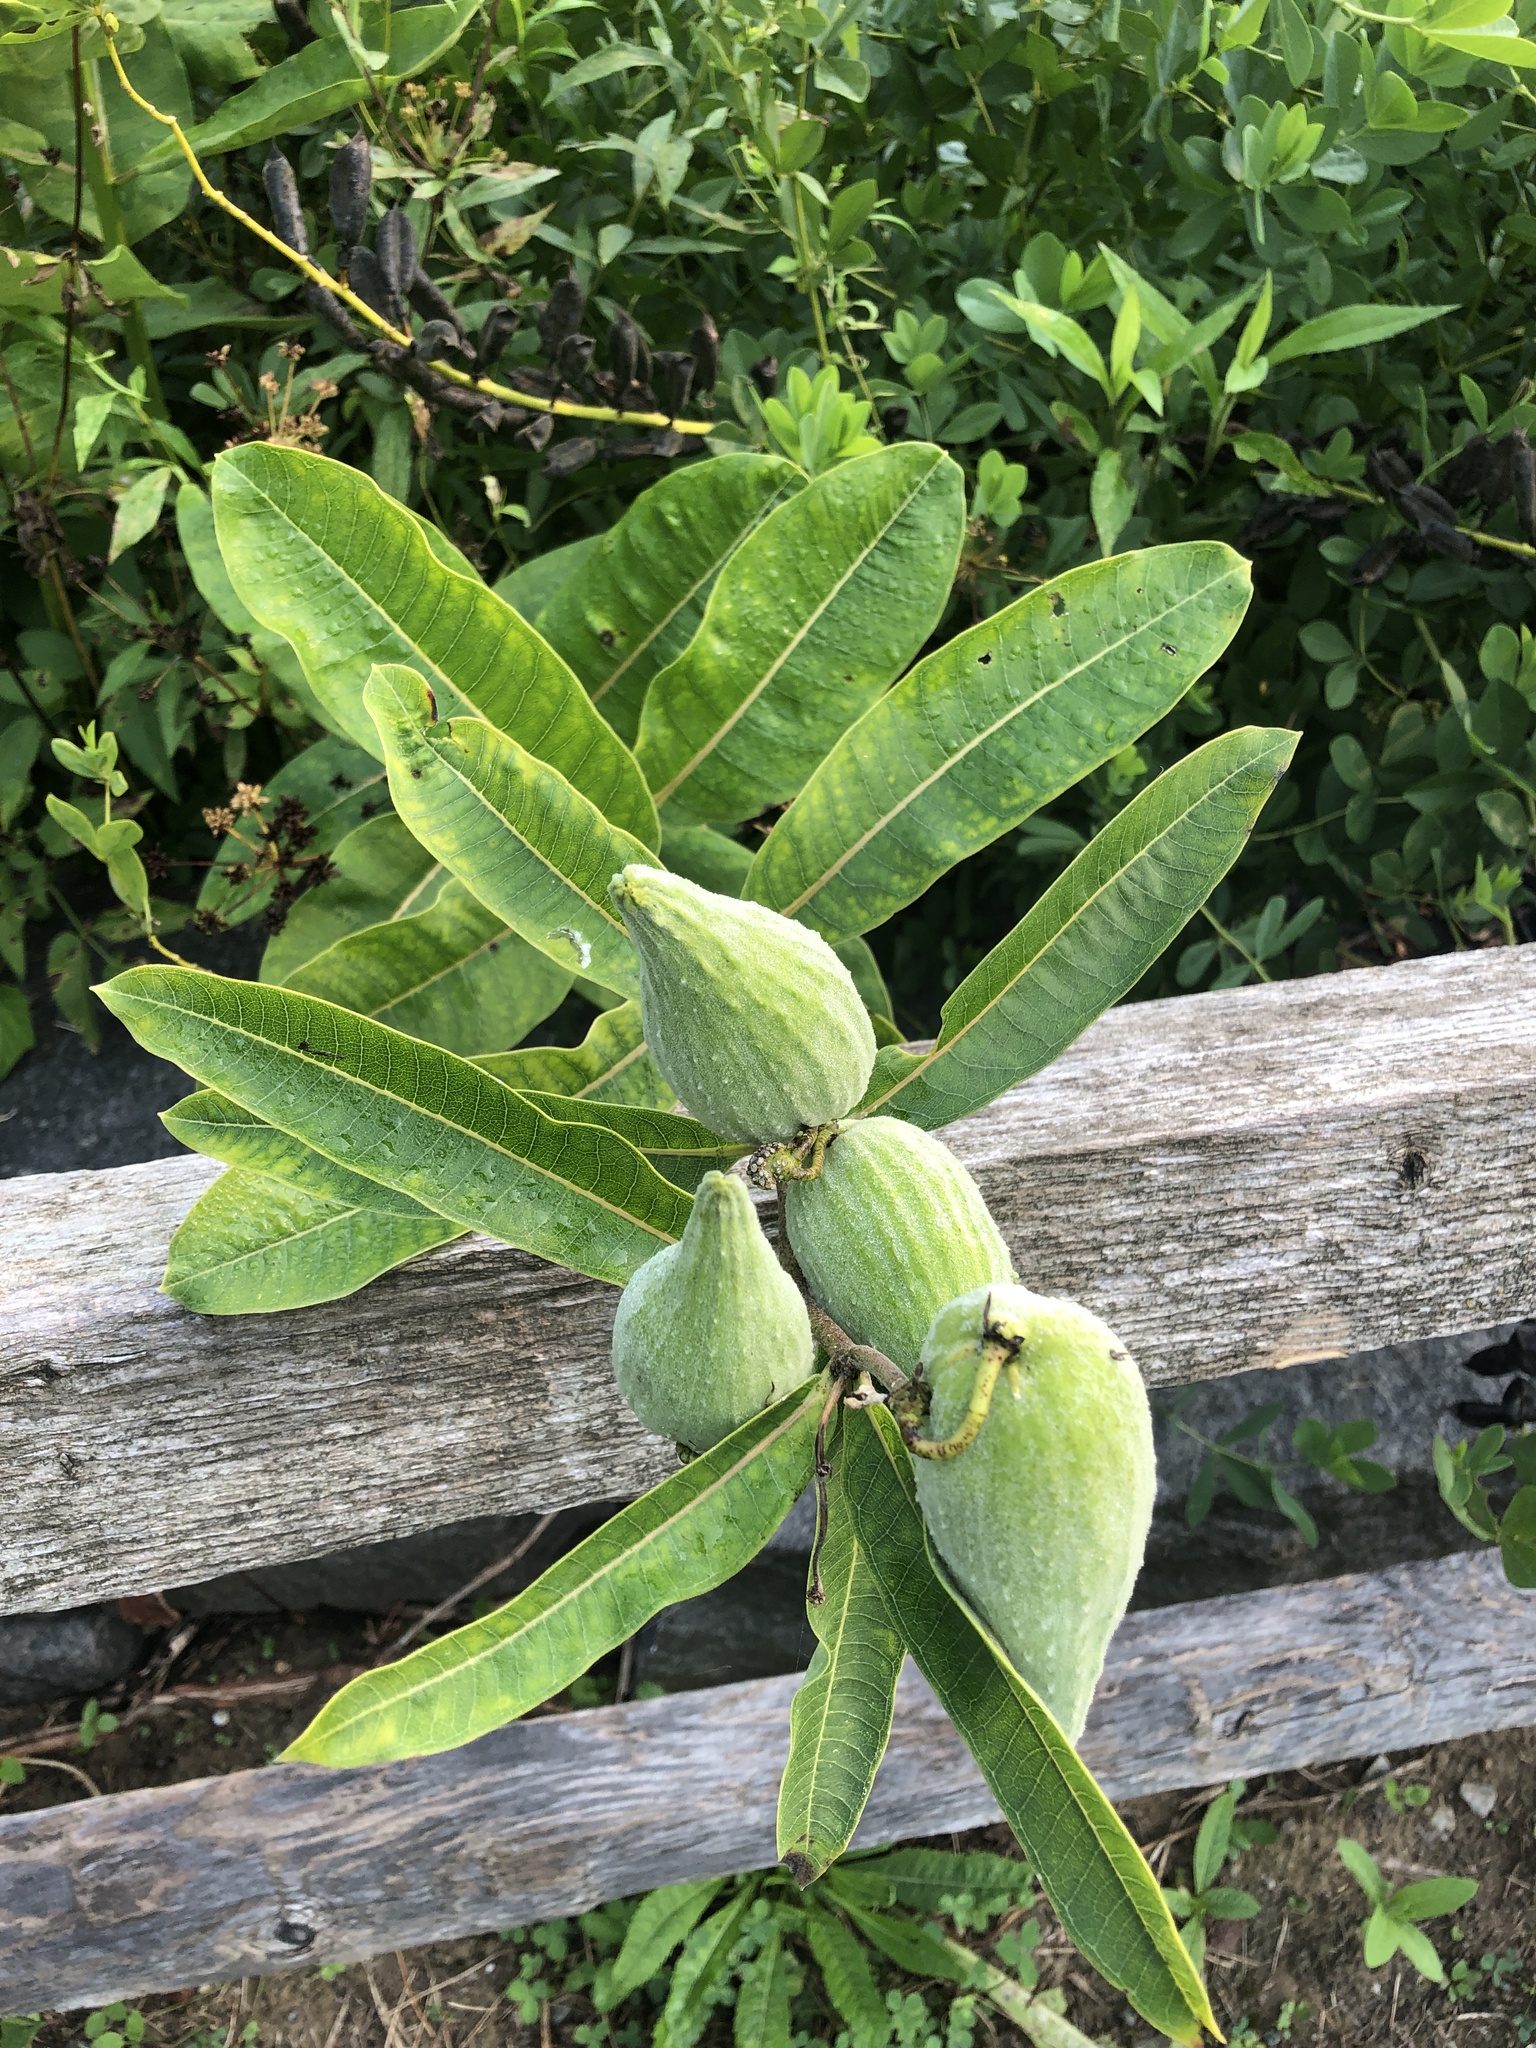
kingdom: Plantae
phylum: Tracheophyta
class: Magnoliopsida
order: Gentianales
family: Apocynaceae
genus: Asclepias
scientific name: Asclepias syriaca
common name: Common milkweed
